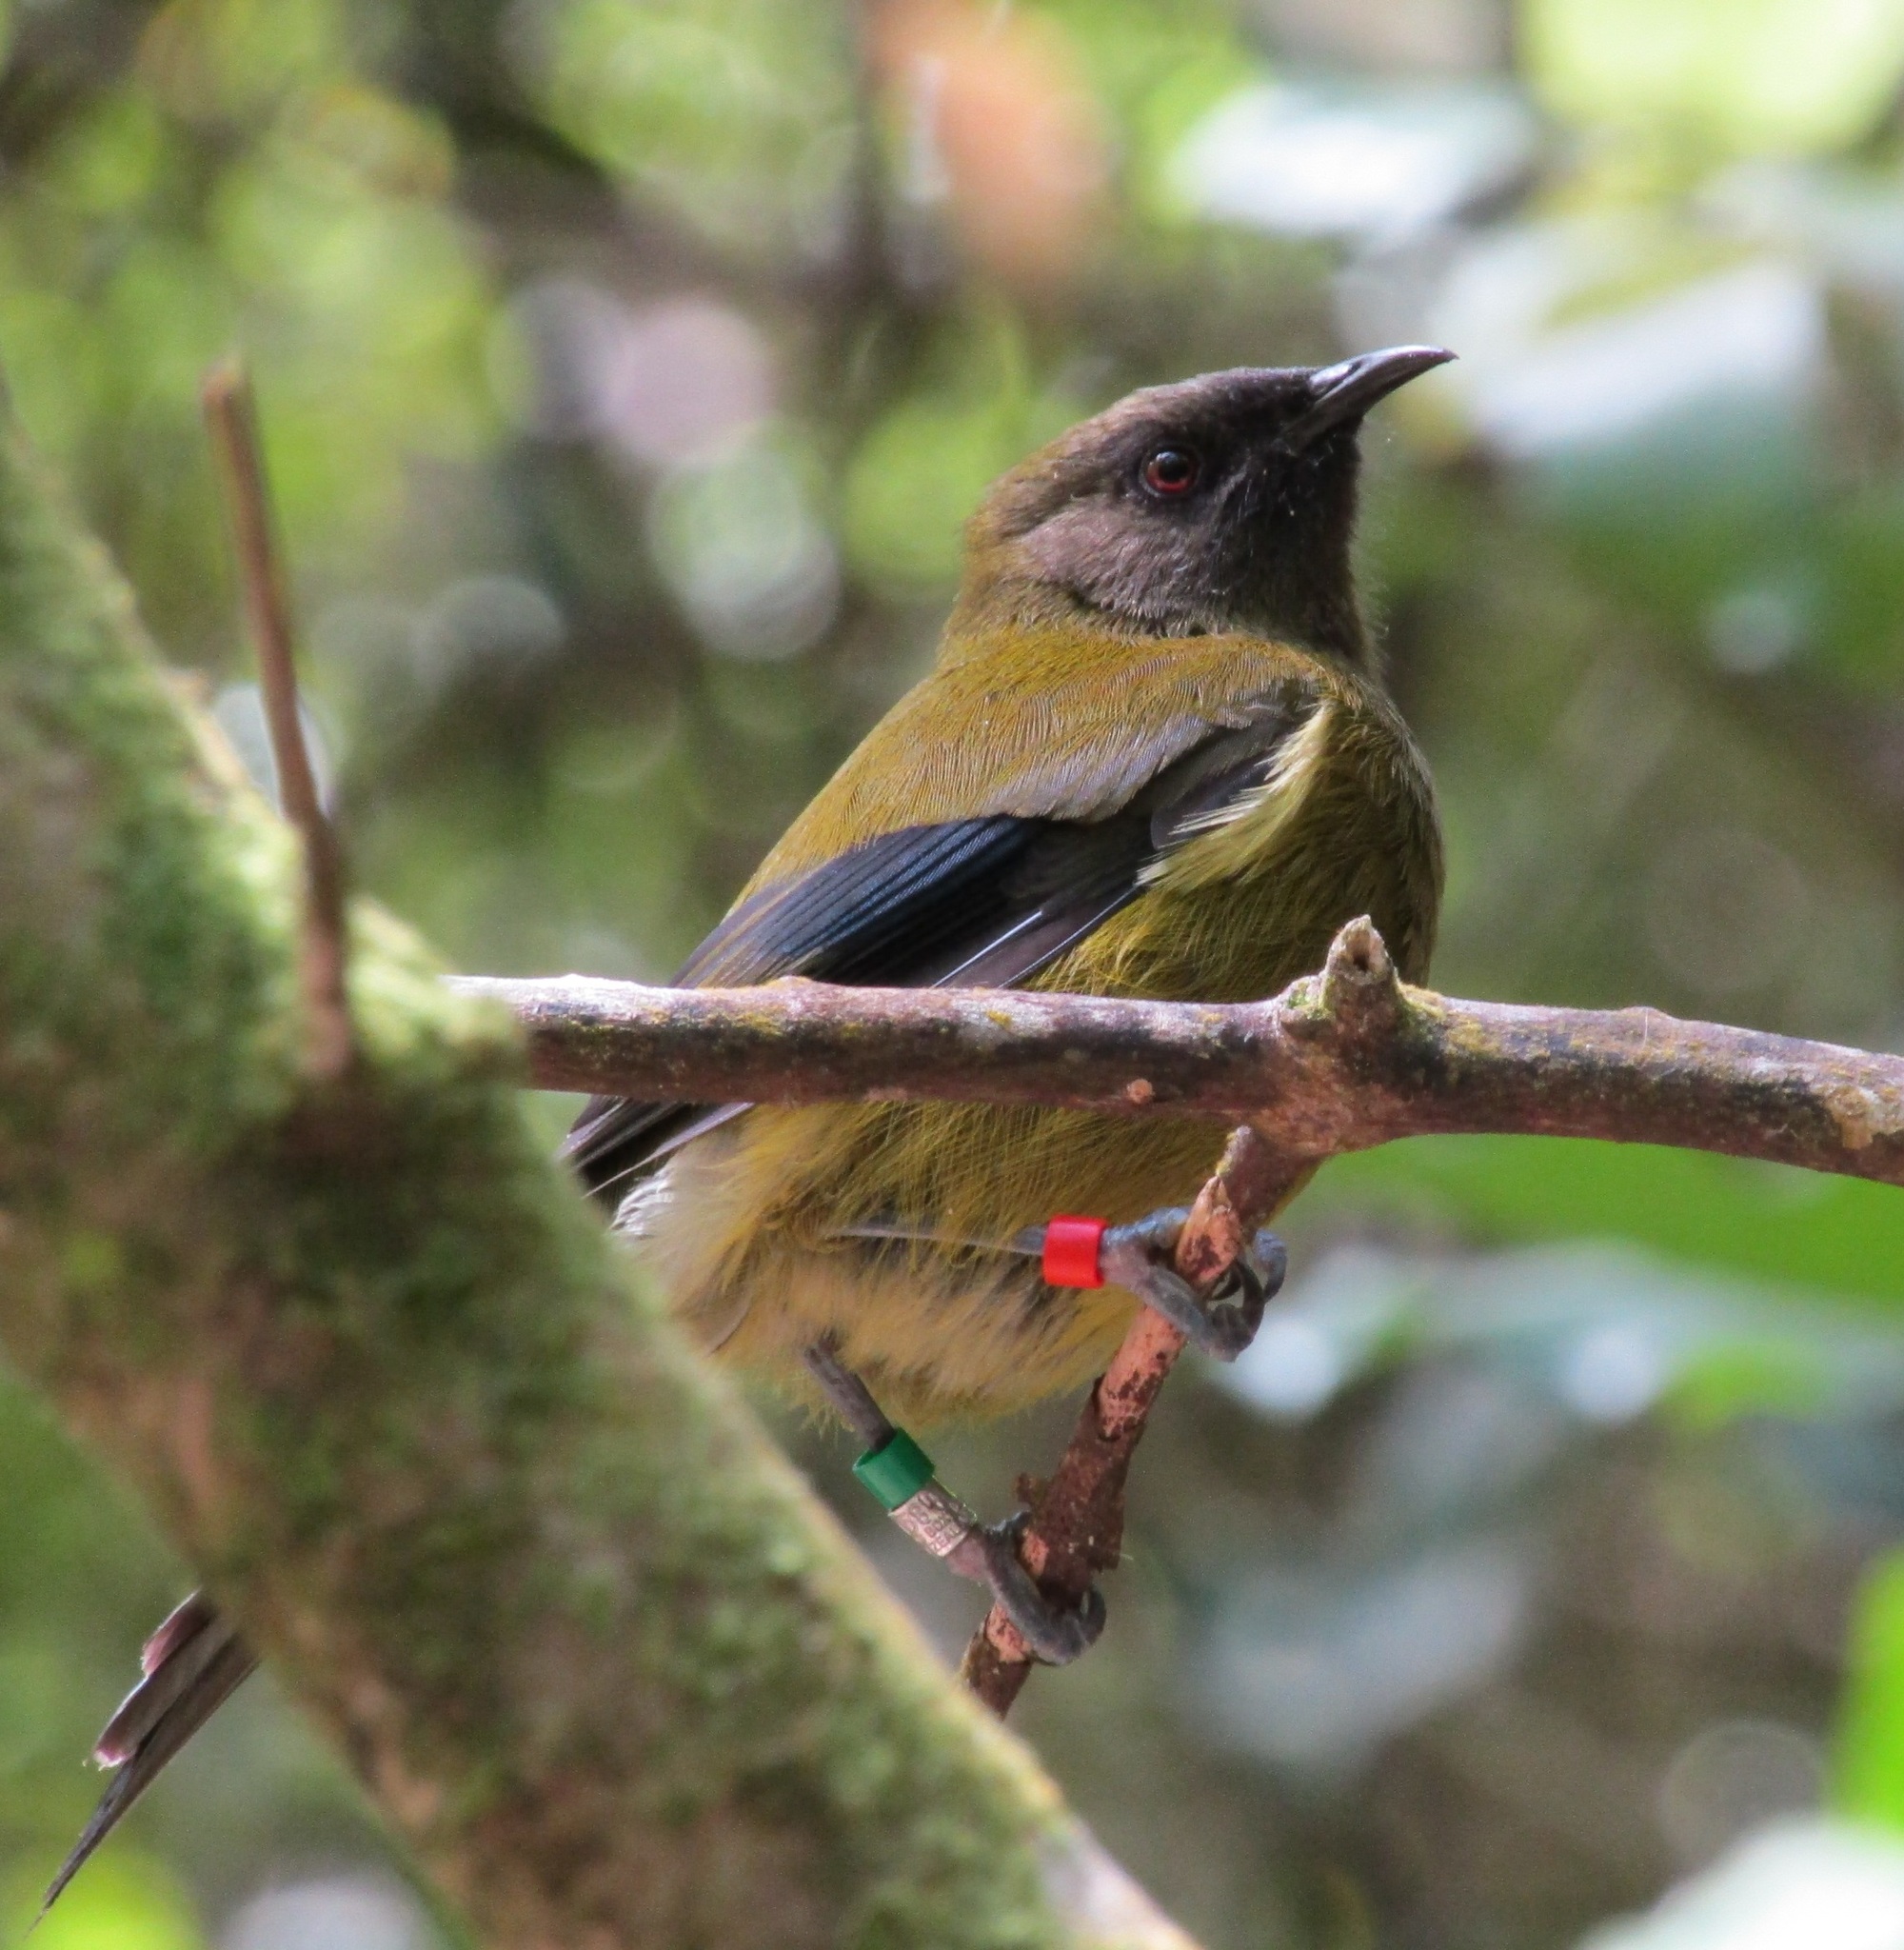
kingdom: Animalia
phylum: Chordata
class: Aves
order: Passeriformes
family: Meliphagidae
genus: Anthornis
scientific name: Anthornis melanura
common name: New zealand bellbird
